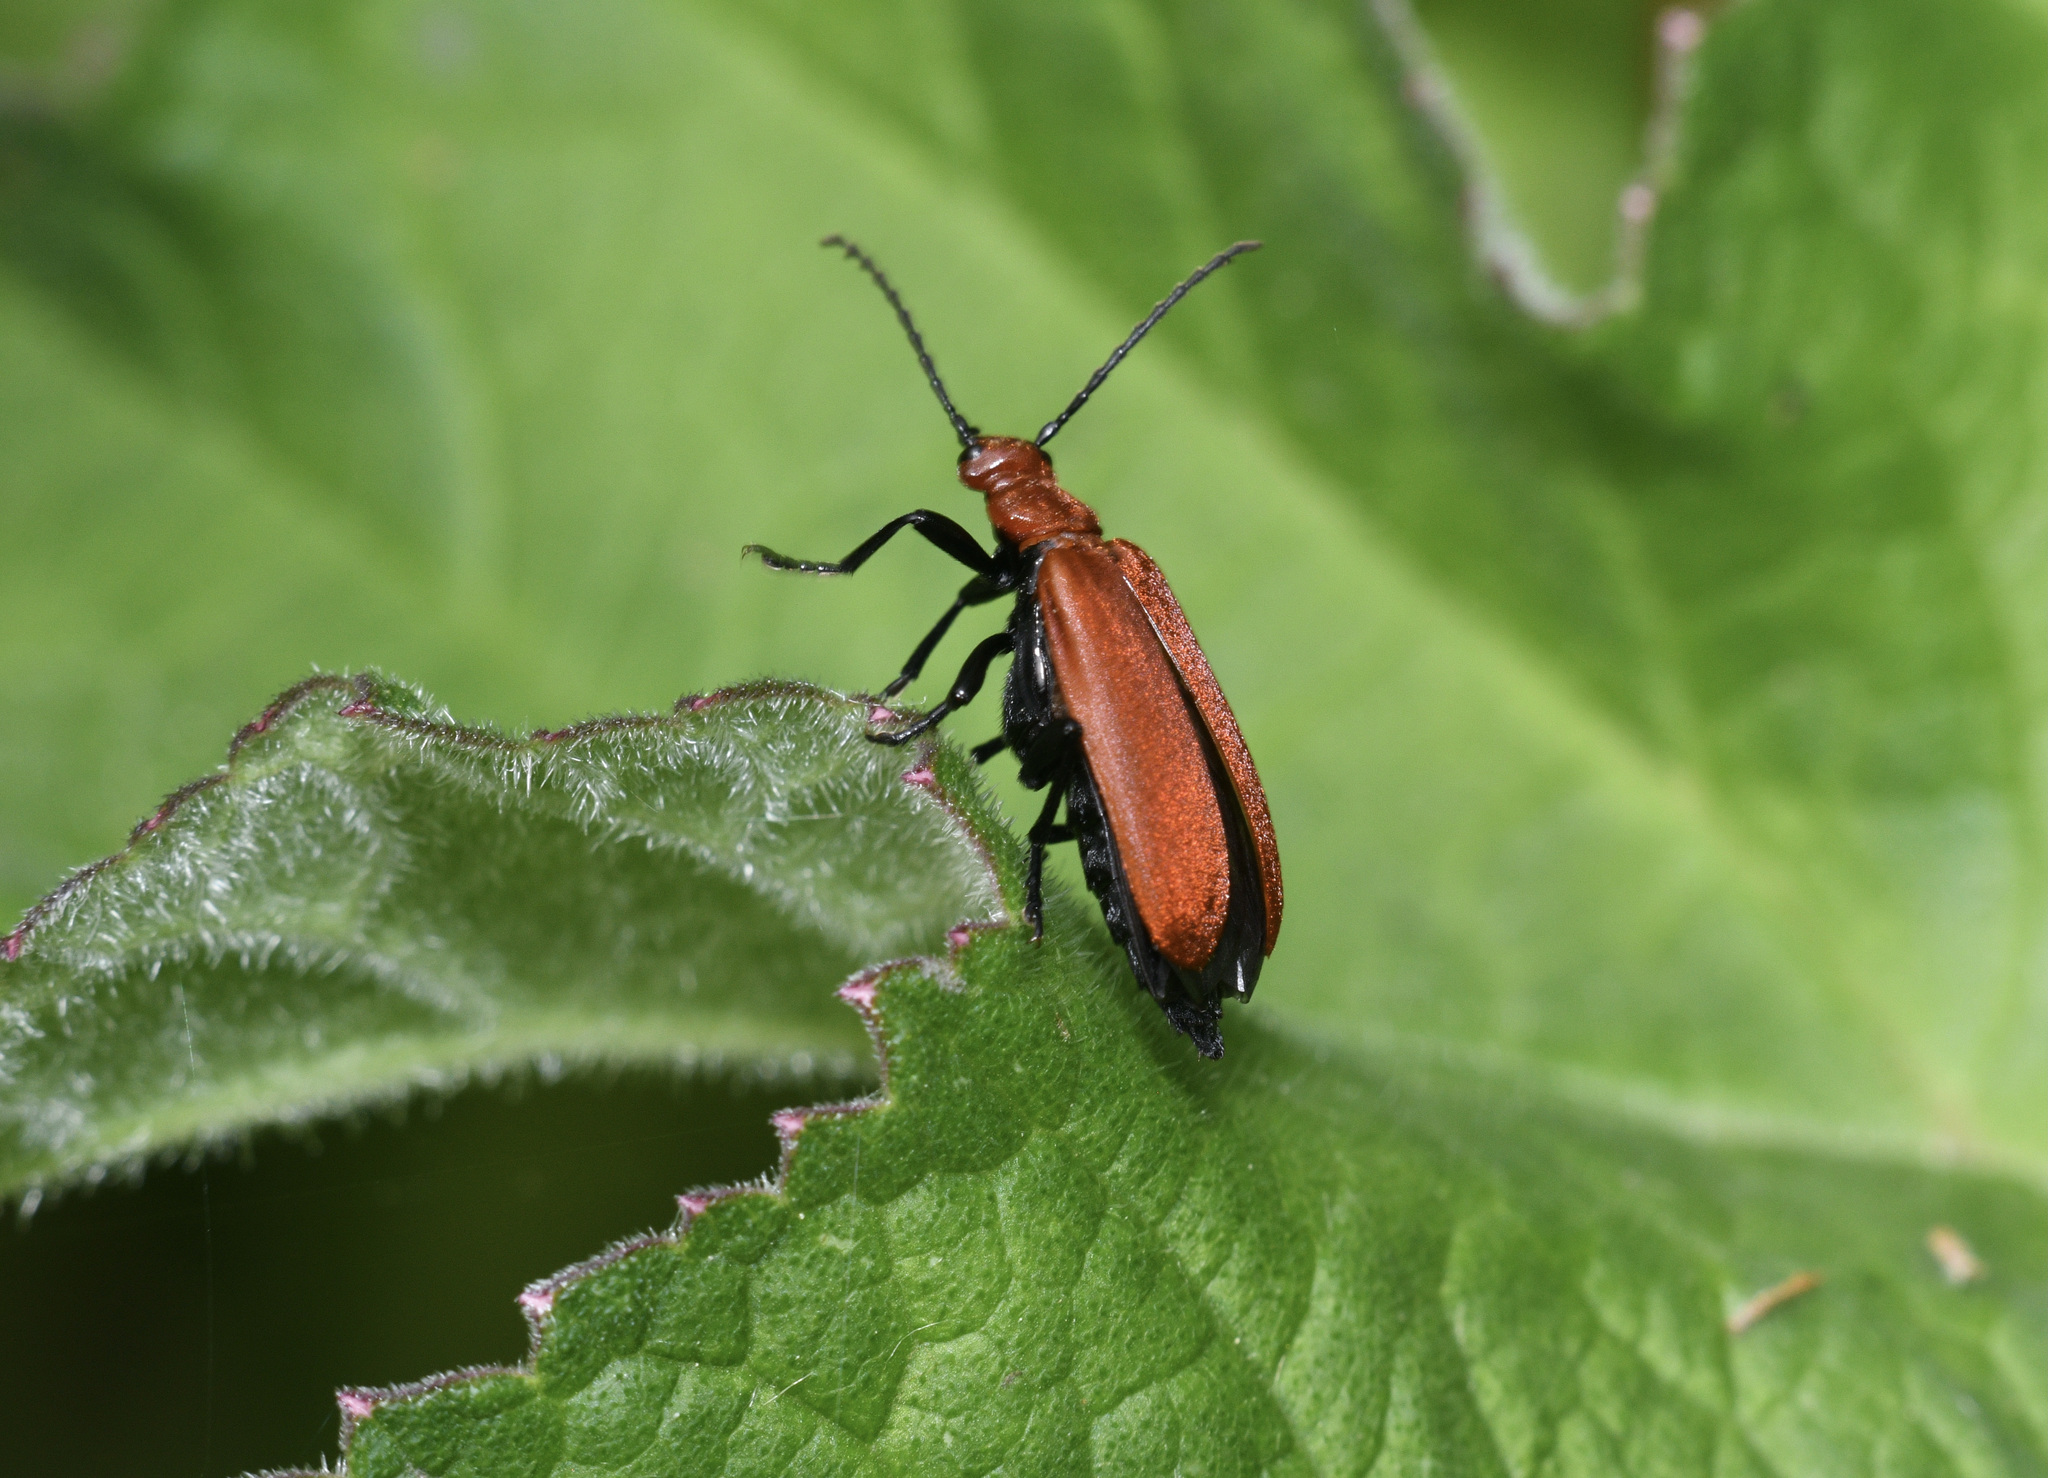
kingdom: Animalia
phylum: Arthropoda
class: Insecta
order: Coleoptera
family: Pyrochroidae
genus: Pyrochroa
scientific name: Pyrochroa serraticornis
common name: Red-headed cardinal beetle
